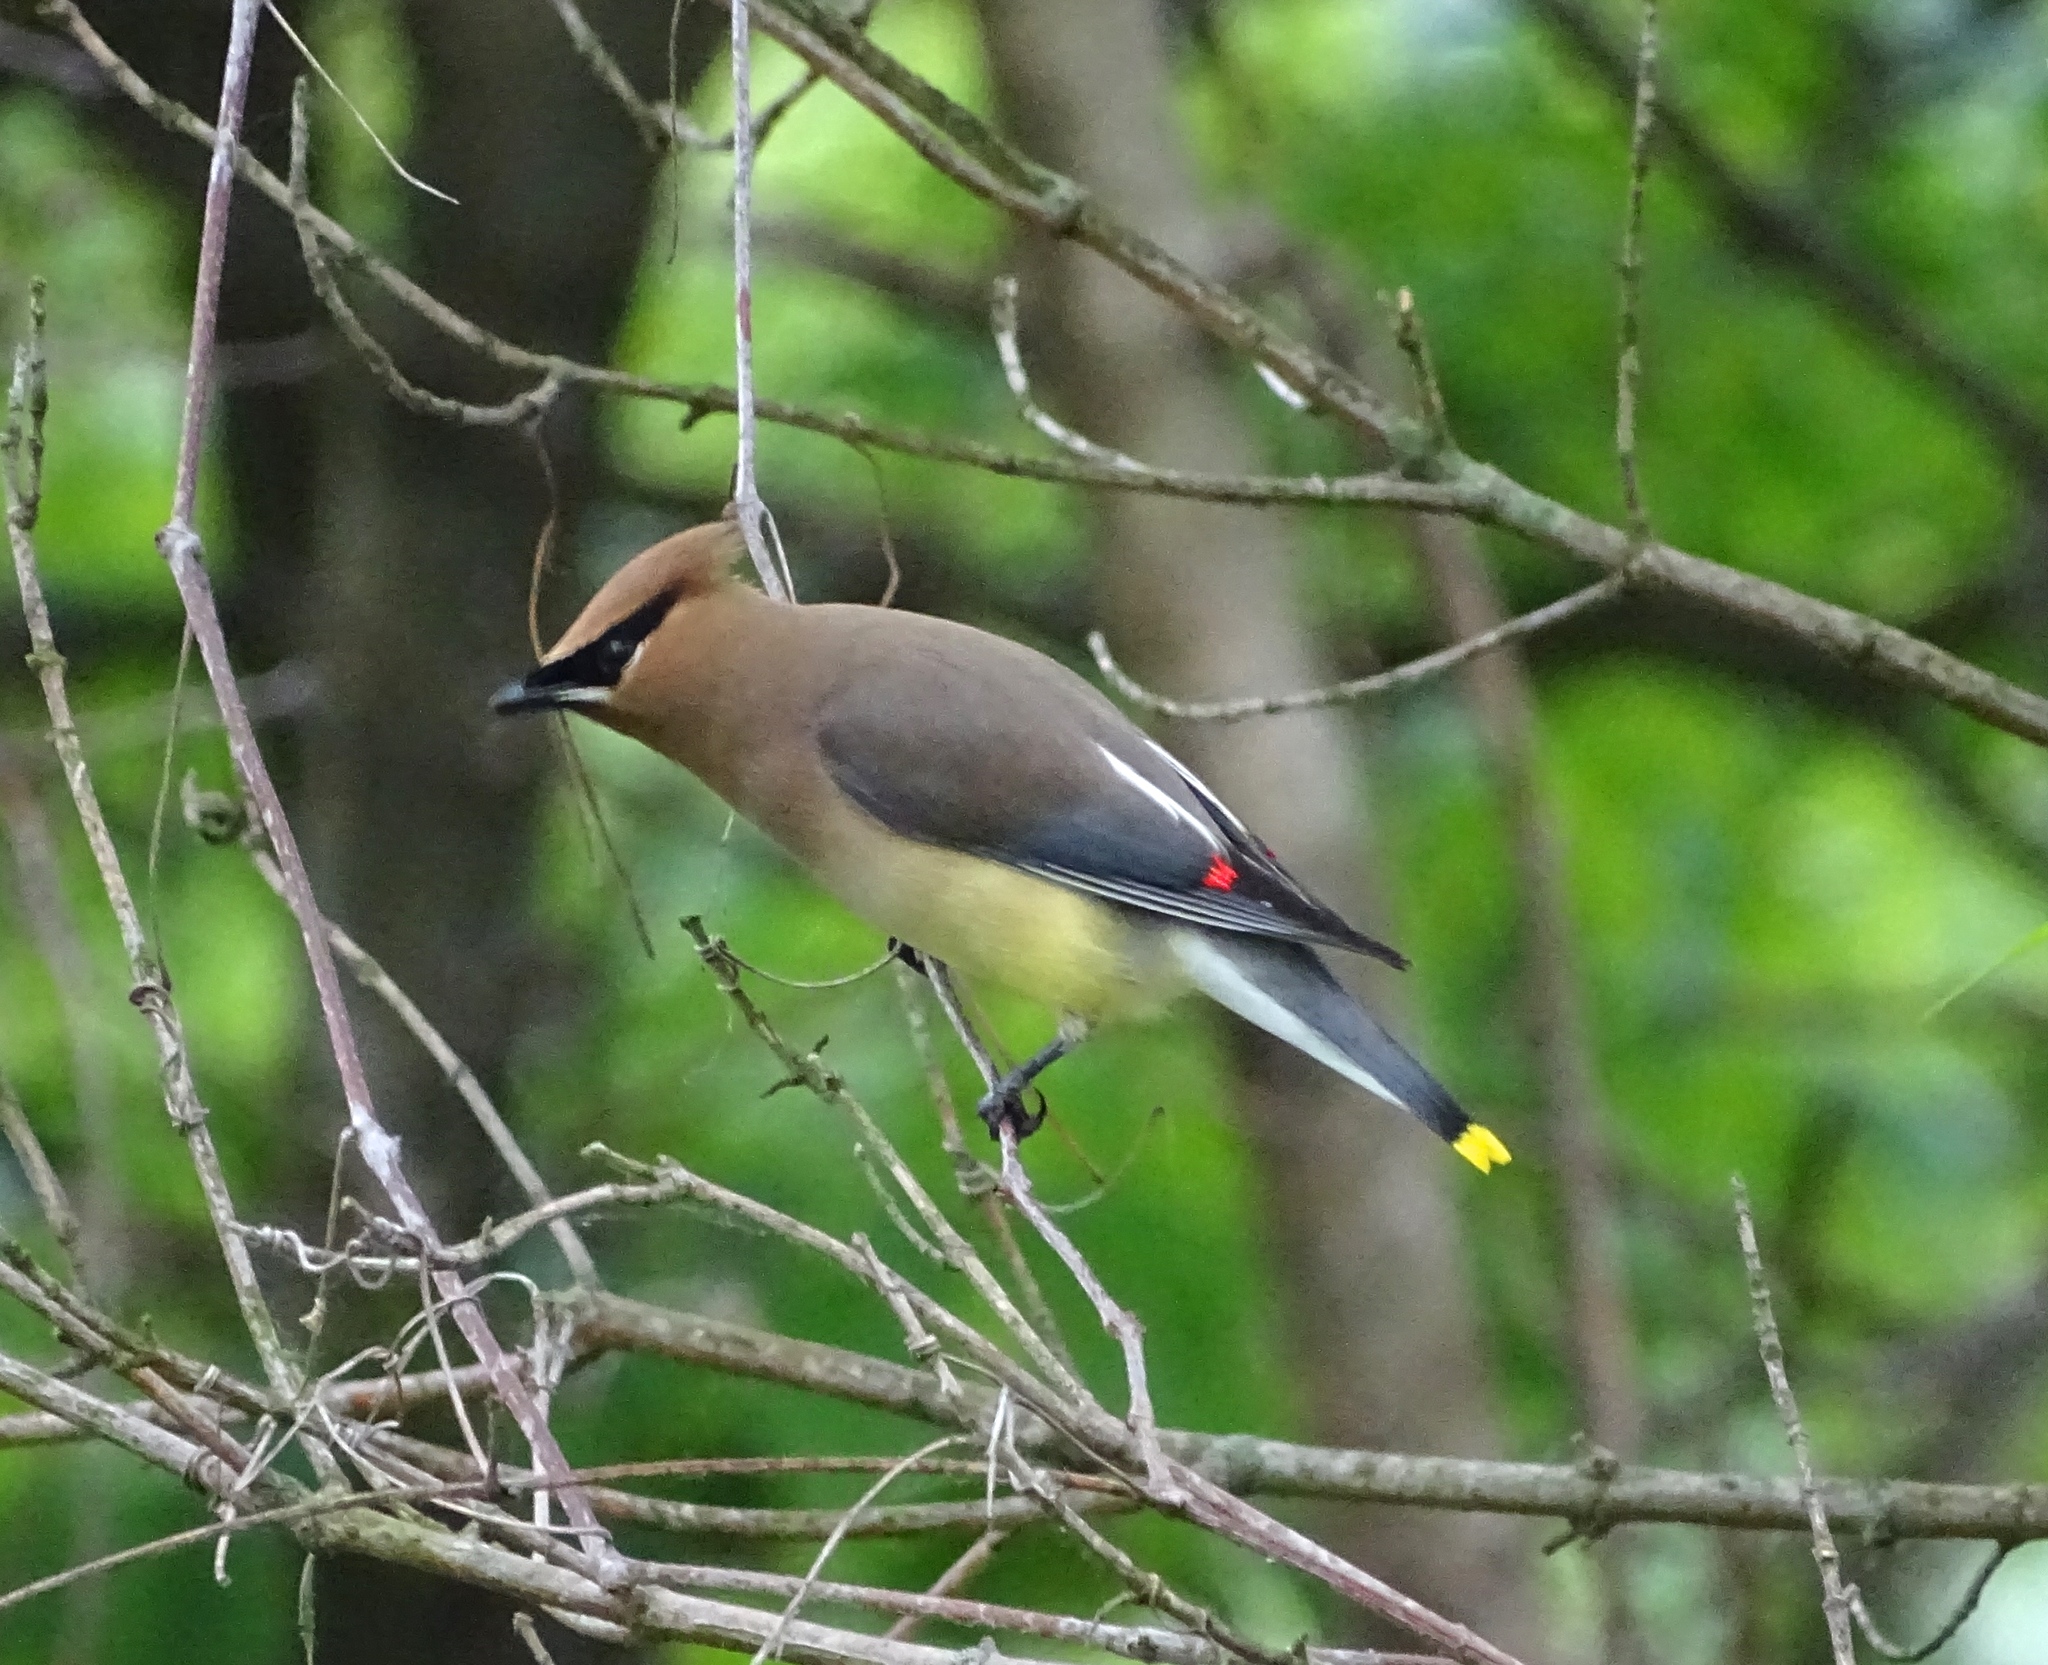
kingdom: Animalia
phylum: Chordata
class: Aves
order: Passeriformes
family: Bombycillidae
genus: Bombycilla
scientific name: Bombycilla cedrorum
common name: Cedar waxwing
